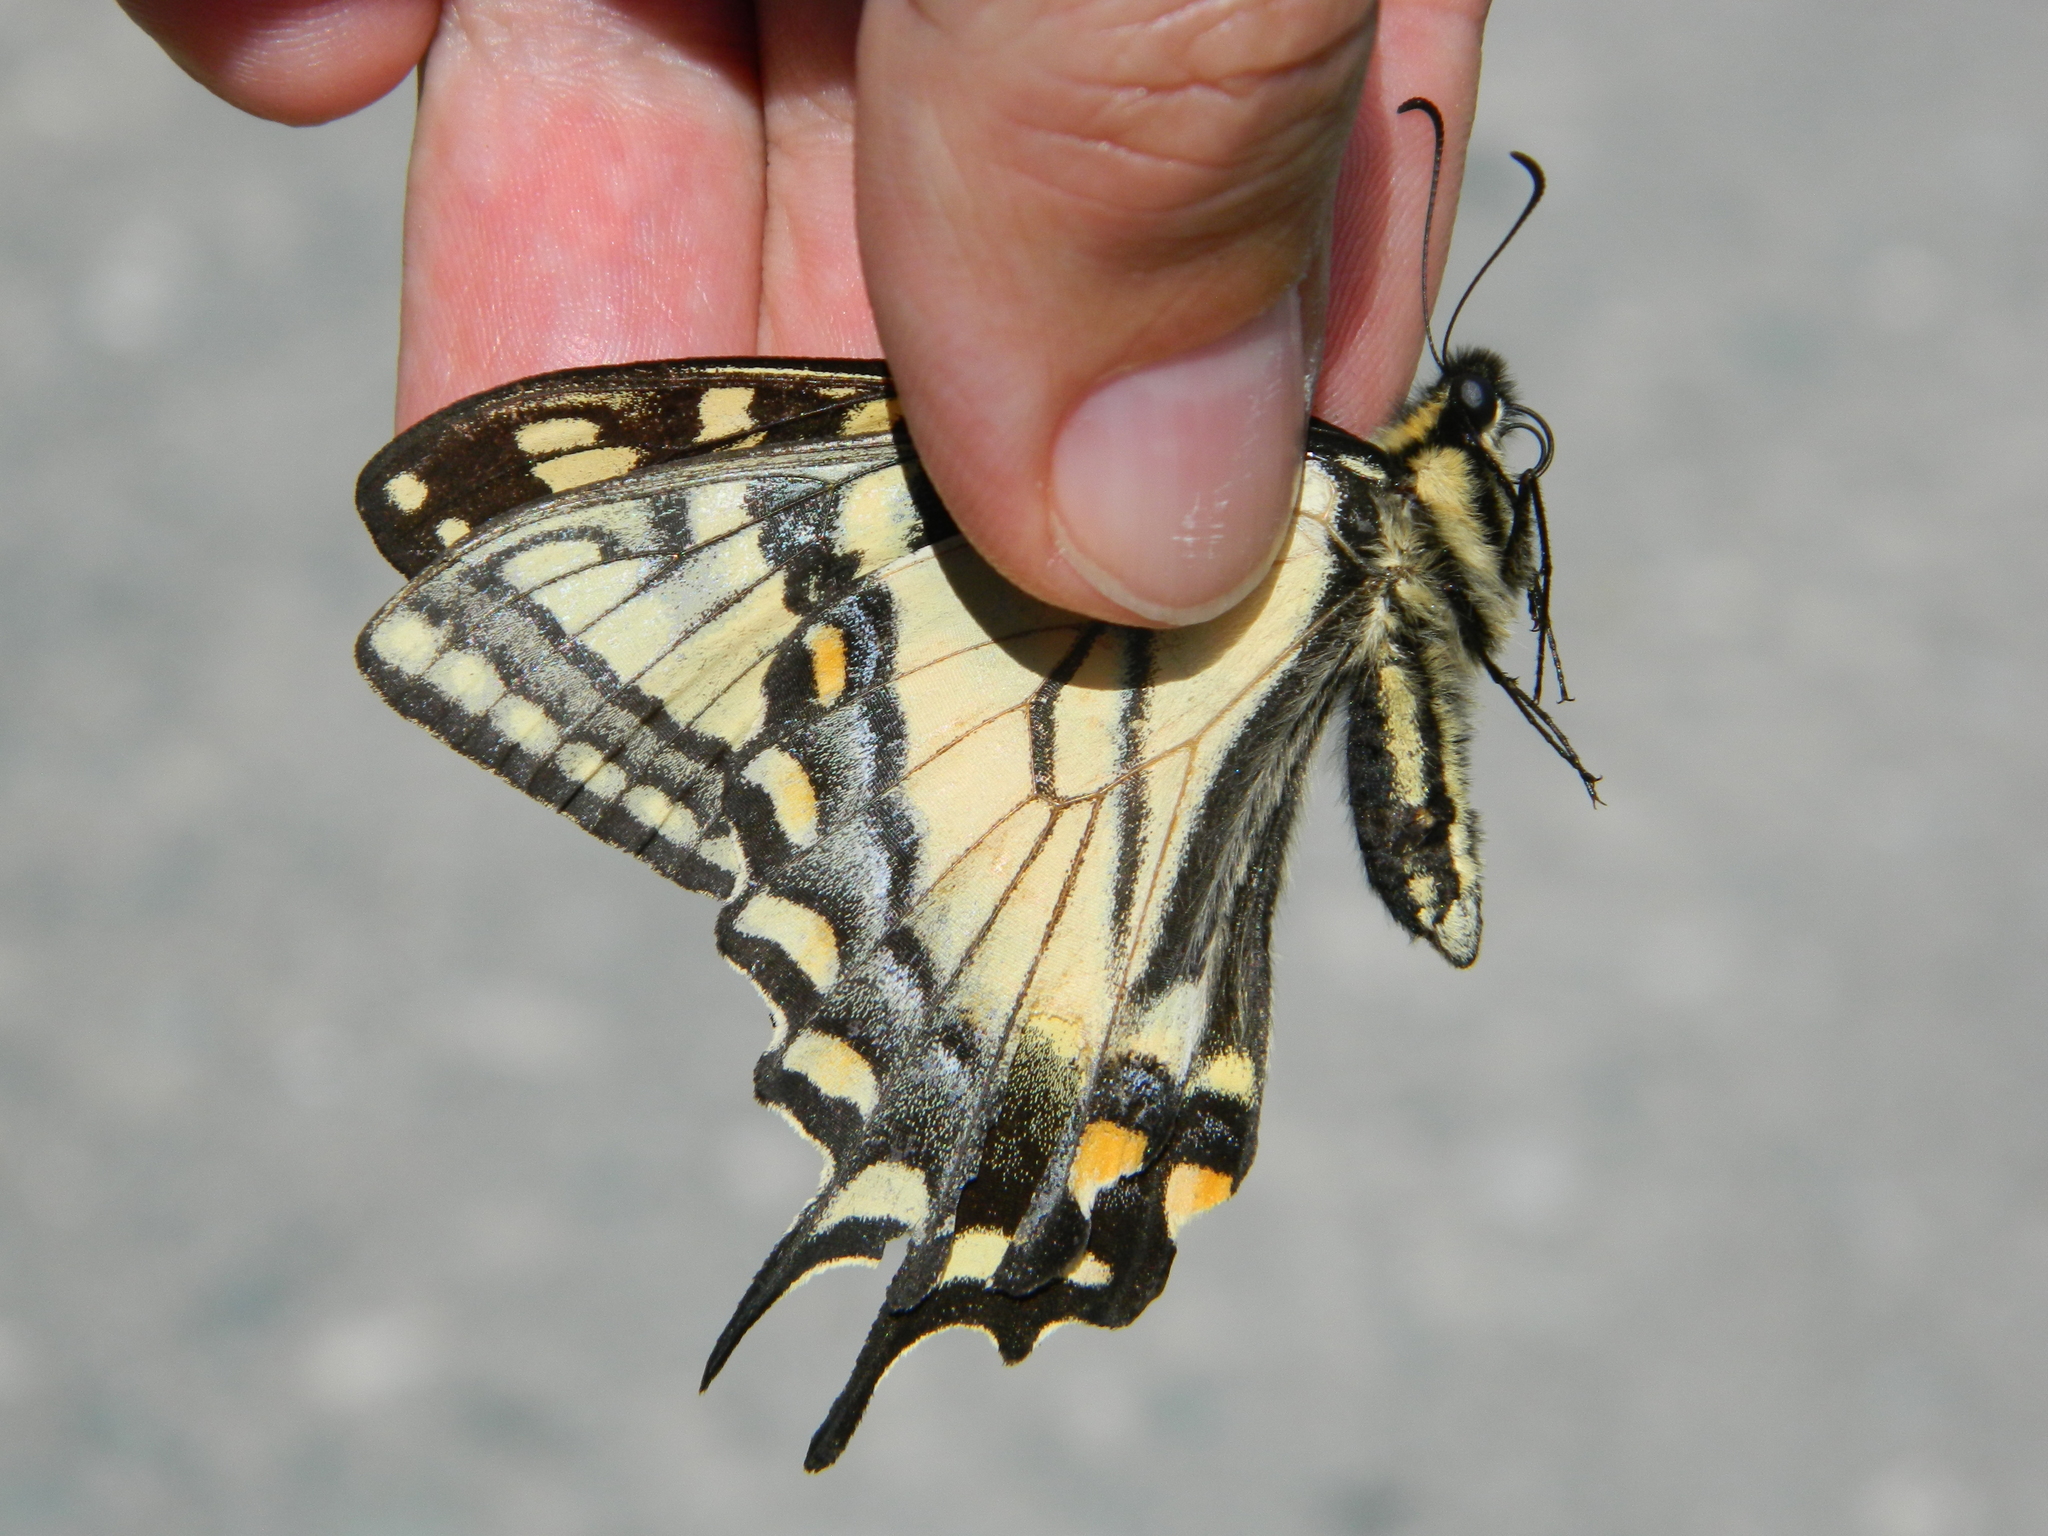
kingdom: Animalia
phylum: Arthropoda
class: Insecta
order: Lepidoptera
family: Papilionidae
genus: Papilio
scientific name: Papilio canadensis
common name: Canadian tiger swallowtail
